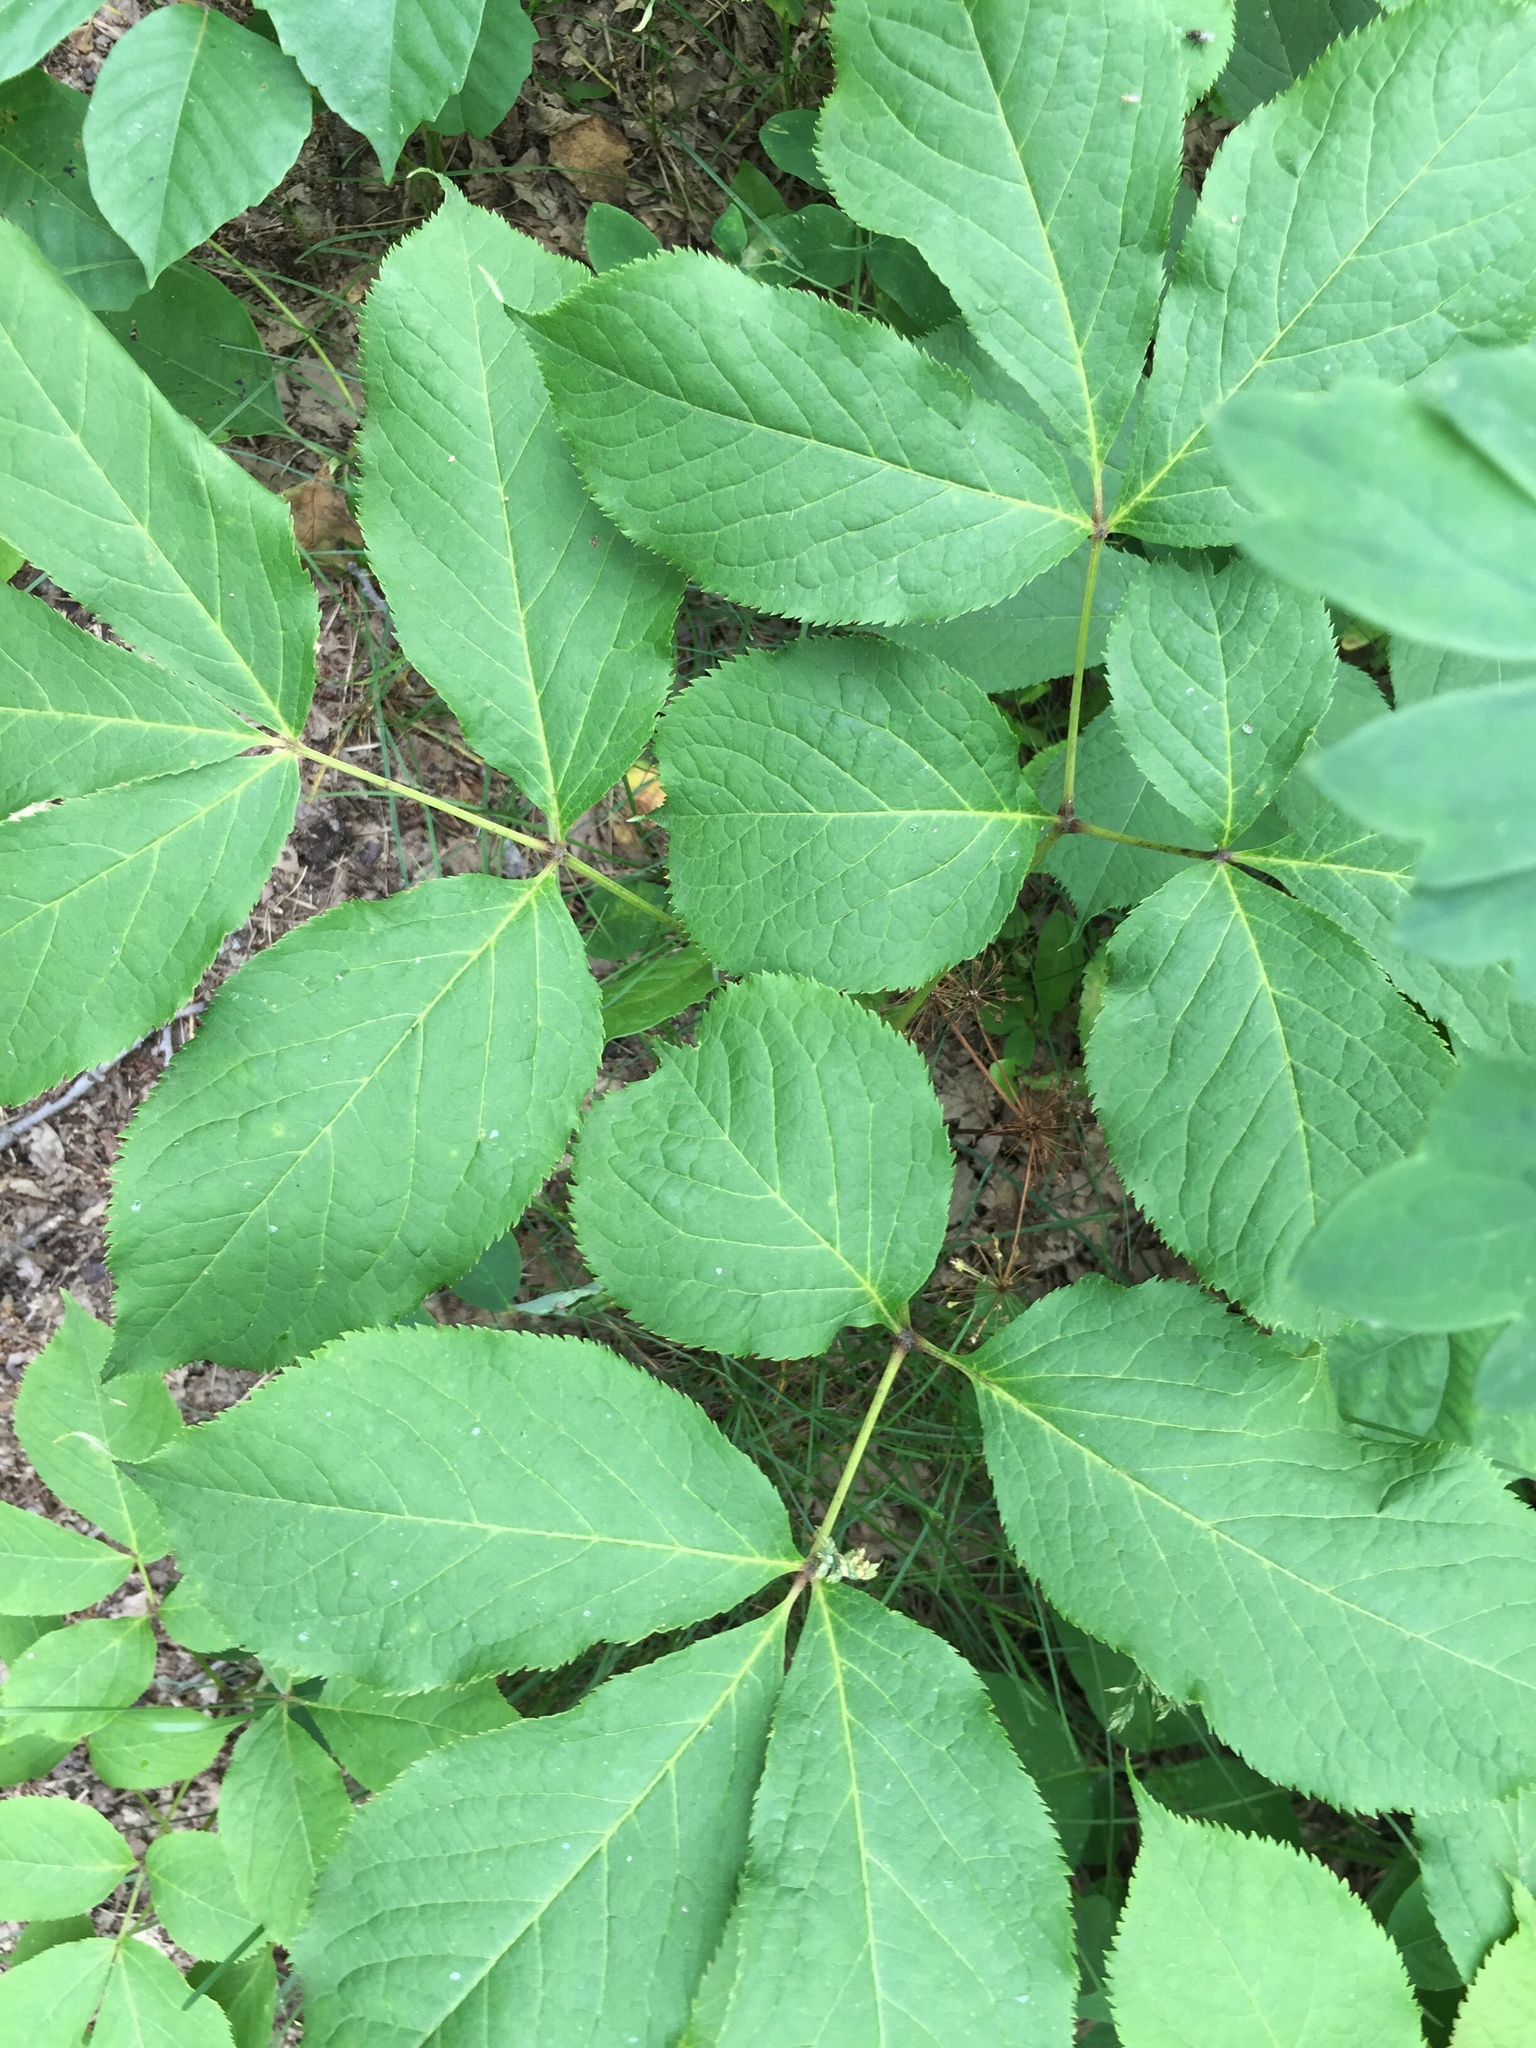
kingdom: Plantae
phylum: Tracheophyta
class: Magnoliopsida
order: Apiales
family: Araliaceae
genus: Aralia
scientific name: Aralia nudicaulis
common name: Wild sarsaparilla
